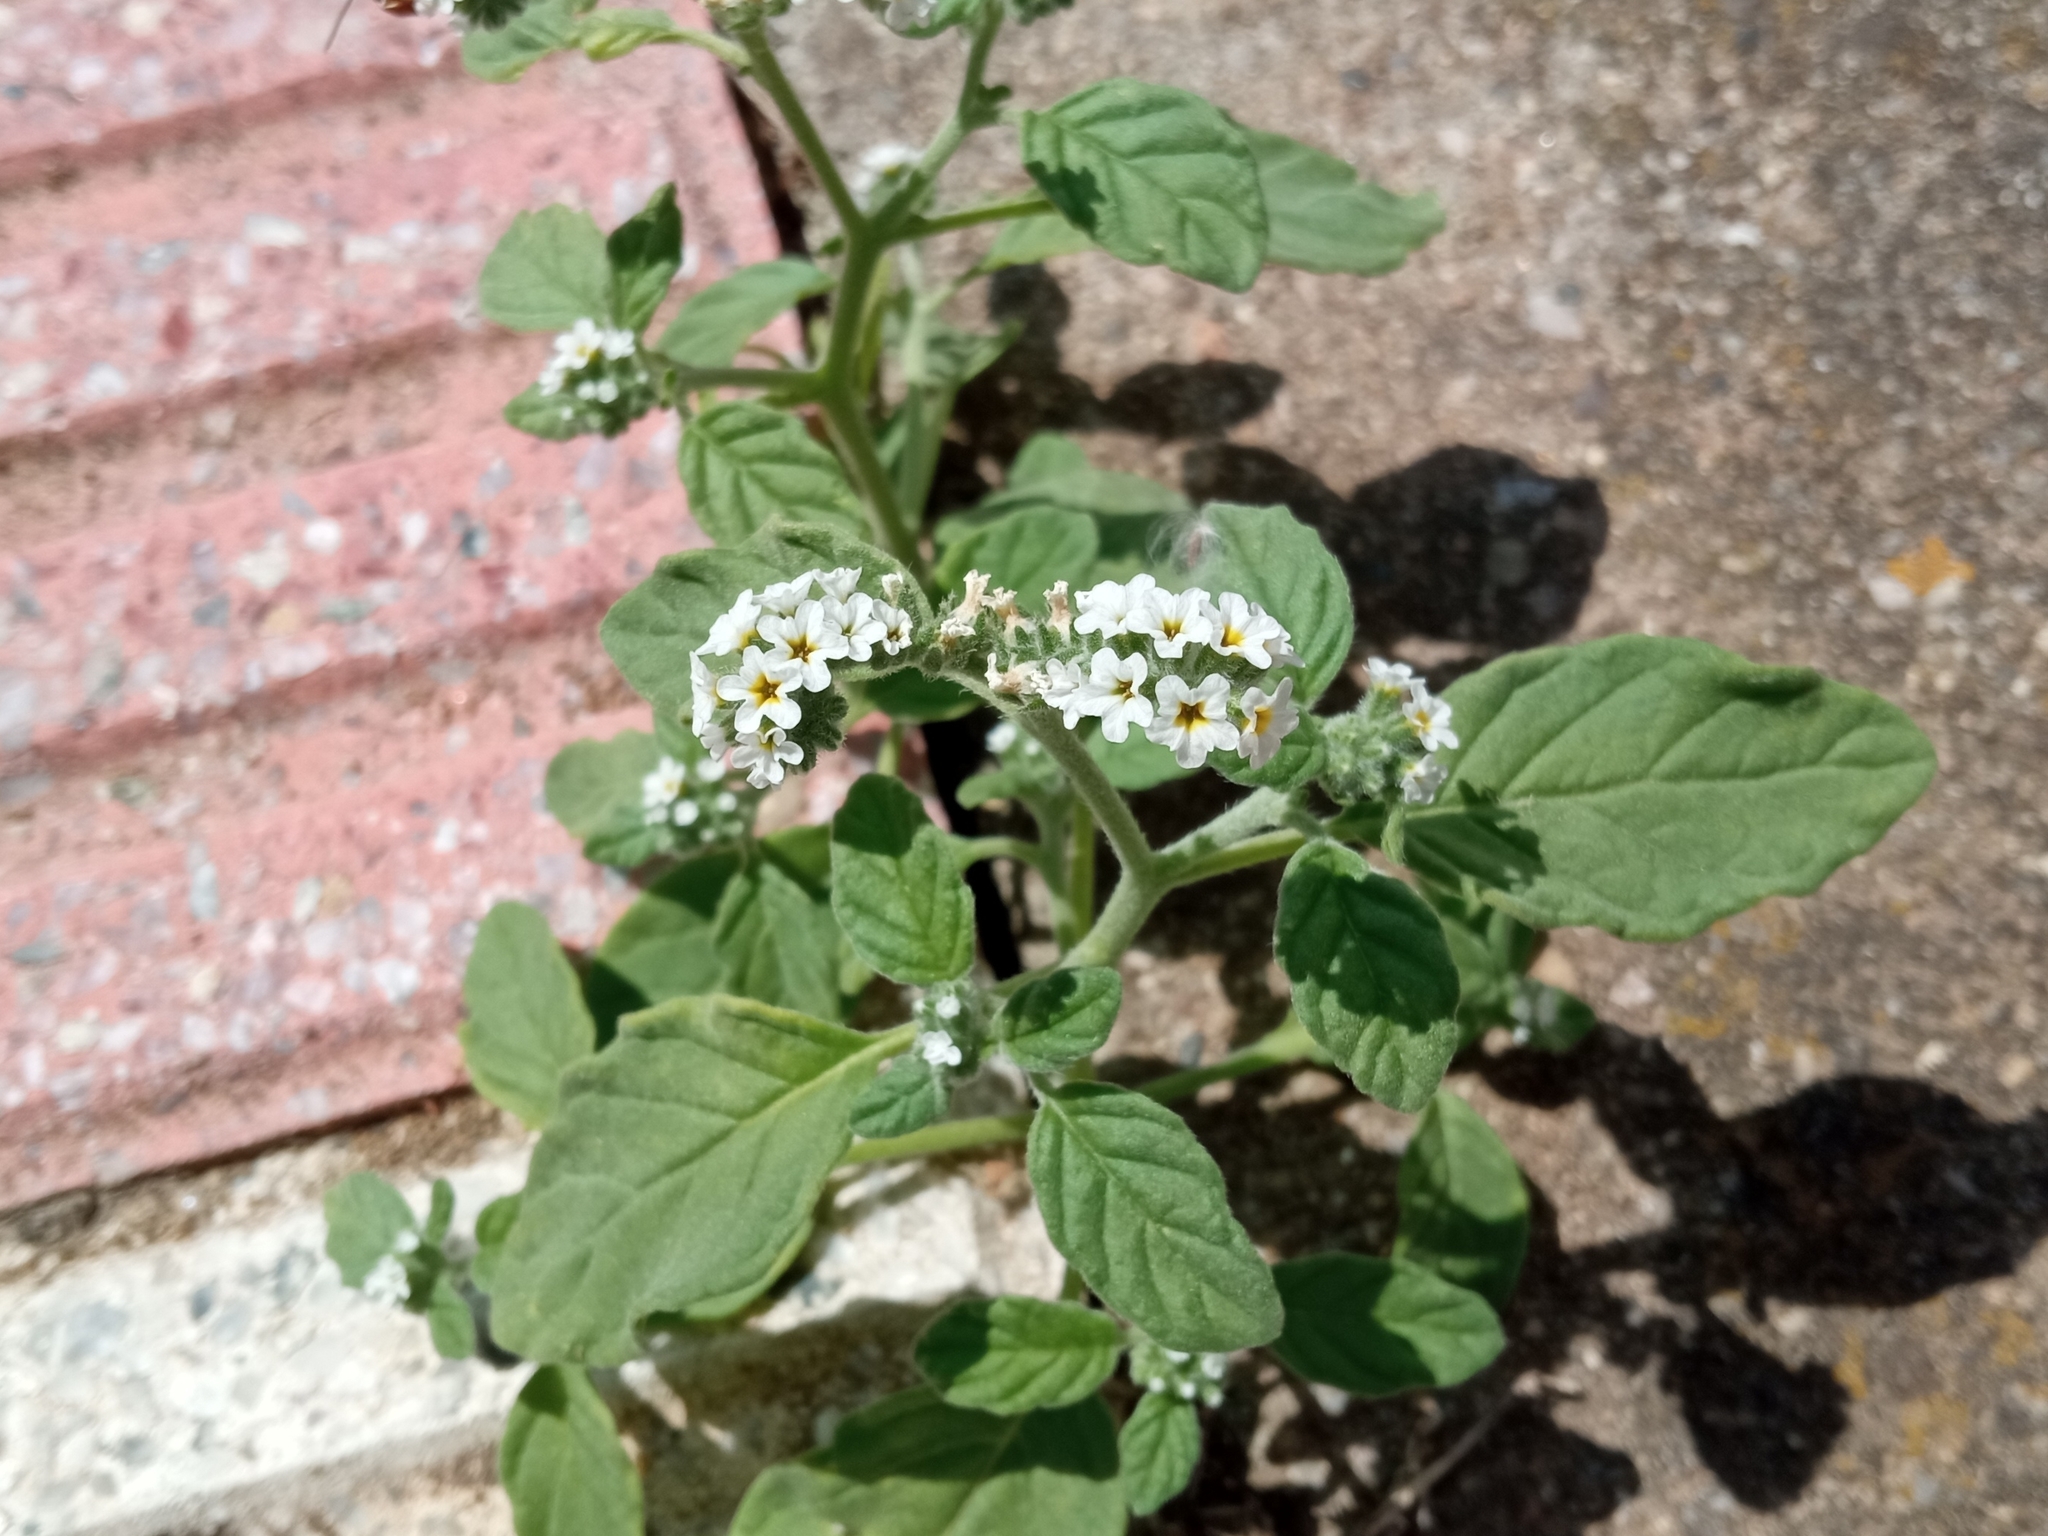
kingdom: Plantae
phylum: Tracheophyta
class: Magnoliopsida
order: Boraginales
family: Heliotropiaceae
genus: Heliotropium
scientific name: Heliotropium europaeum
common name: European heliotrope
